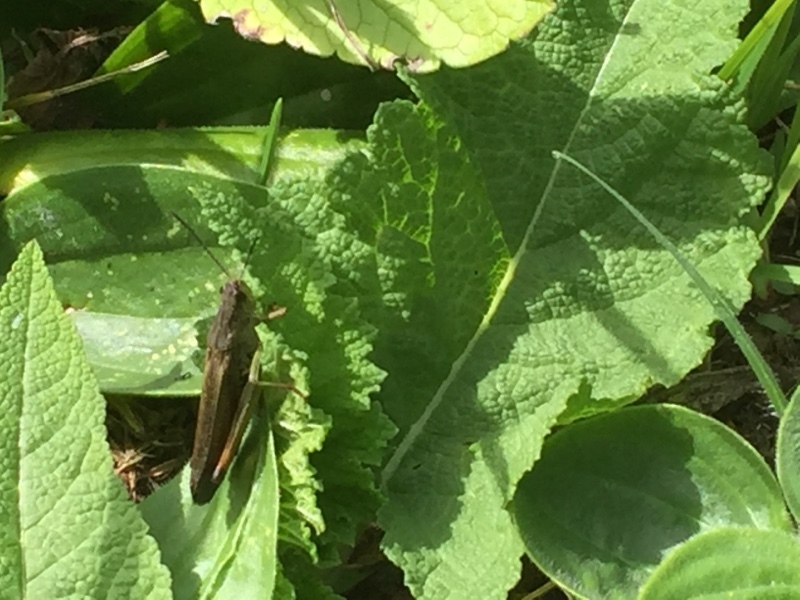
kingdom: Animalia
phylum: Arthropoda
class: Insecta
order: Orthoptera
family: Acrididae
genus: Stauroderus
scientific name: Stauroderus scalaris
